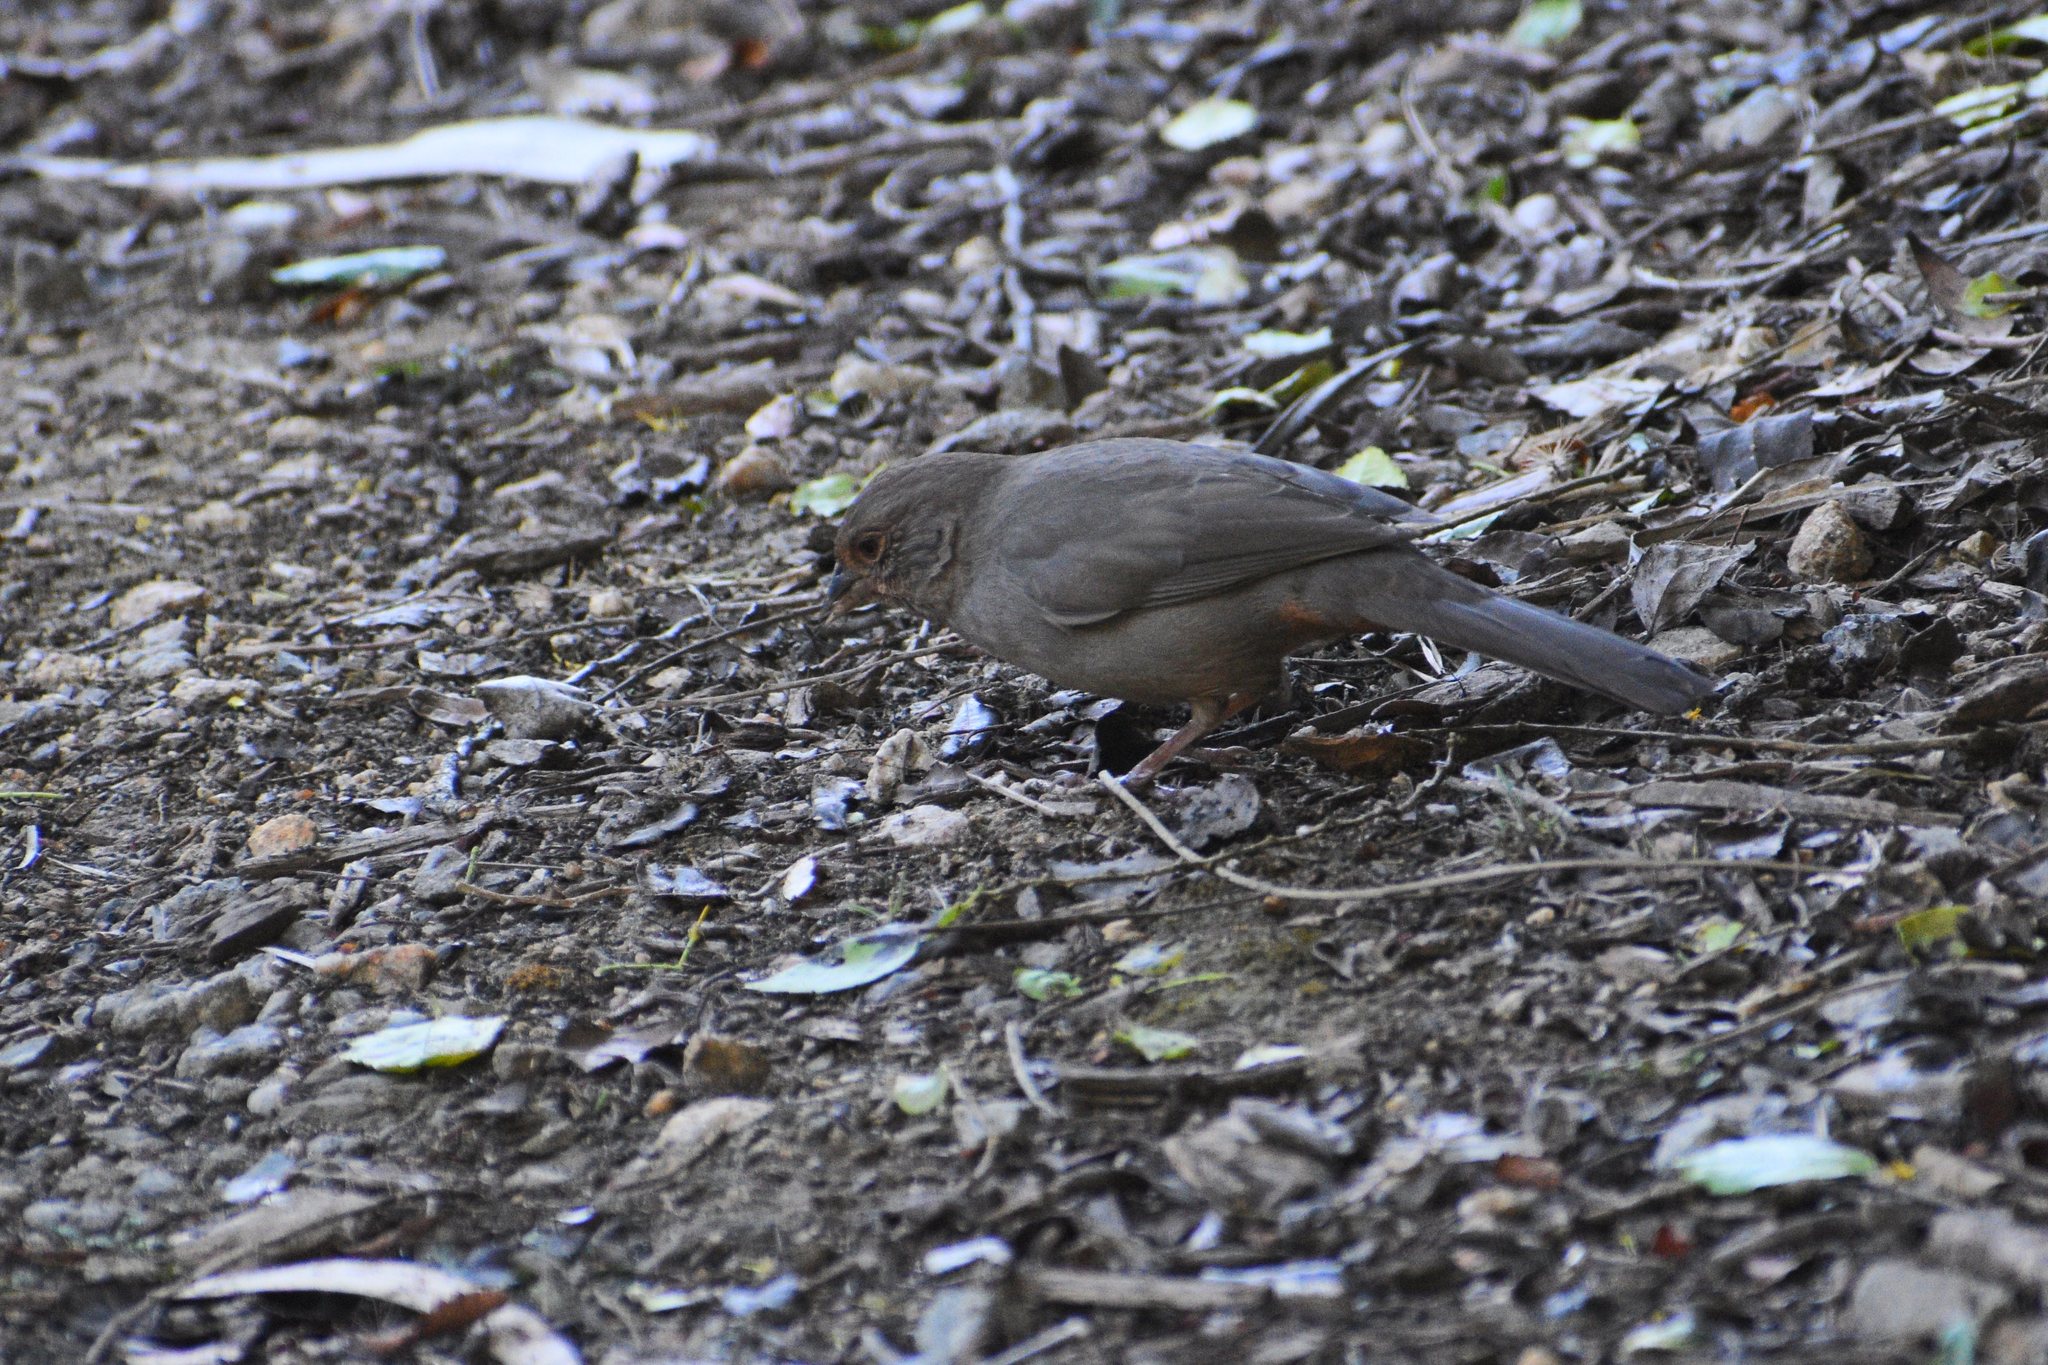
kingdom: Animalia
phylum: Chordata
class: Aves
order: Passeriformes
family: Passerellidae
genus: Melozone
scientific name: Melozone crissalis
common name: California towhee
